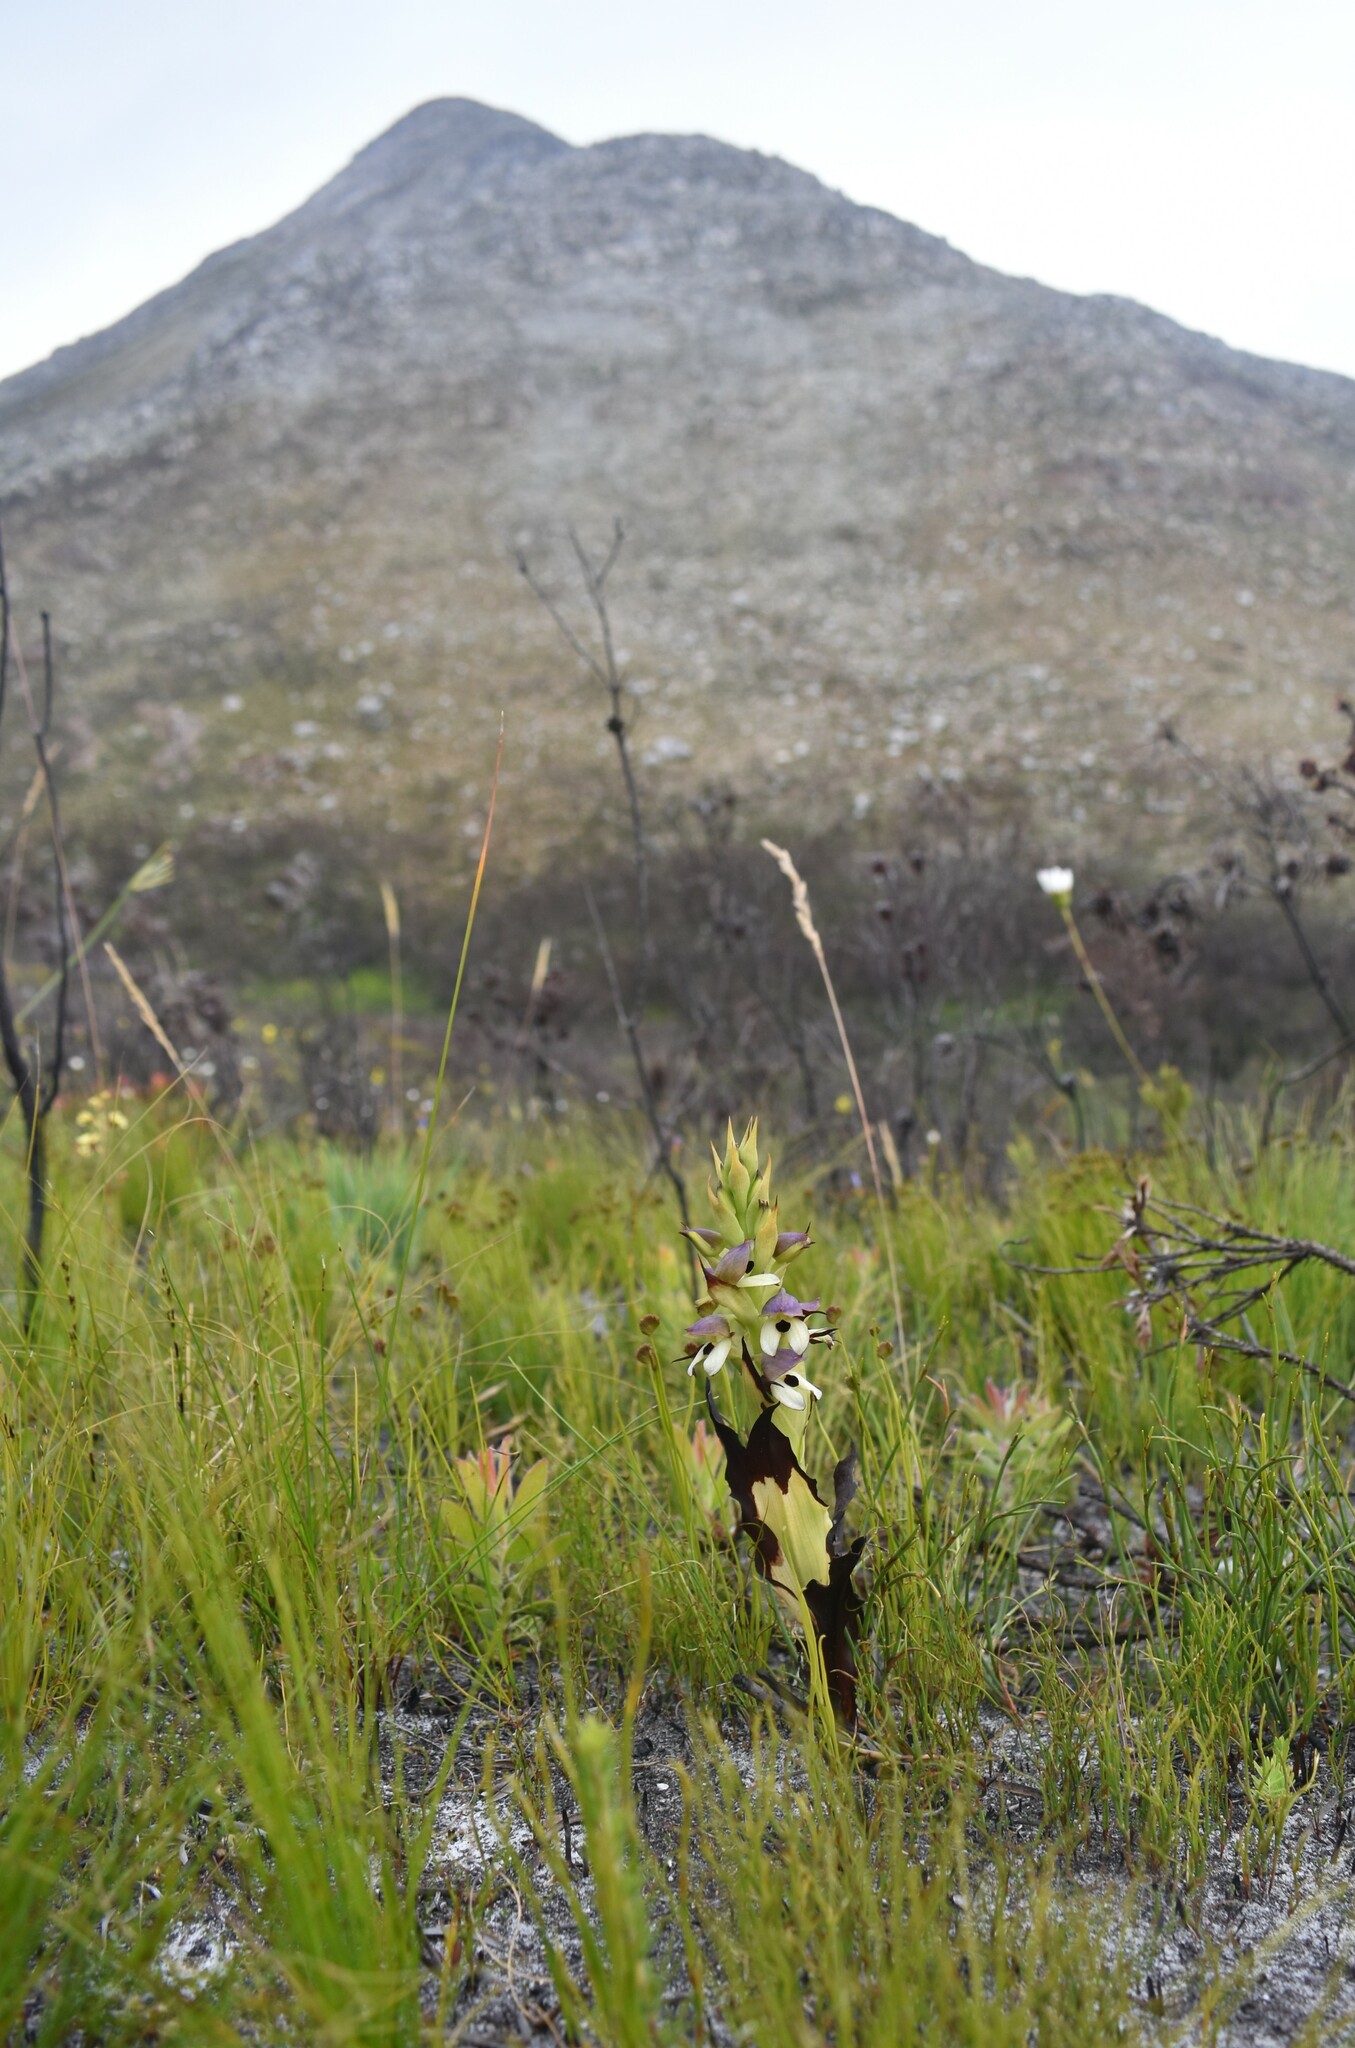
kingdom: Plantae
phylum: Tracheophyta
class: Liliopsida
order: Asparagales
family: Orchidaceae
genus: Disa
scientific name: Disa cornuta
